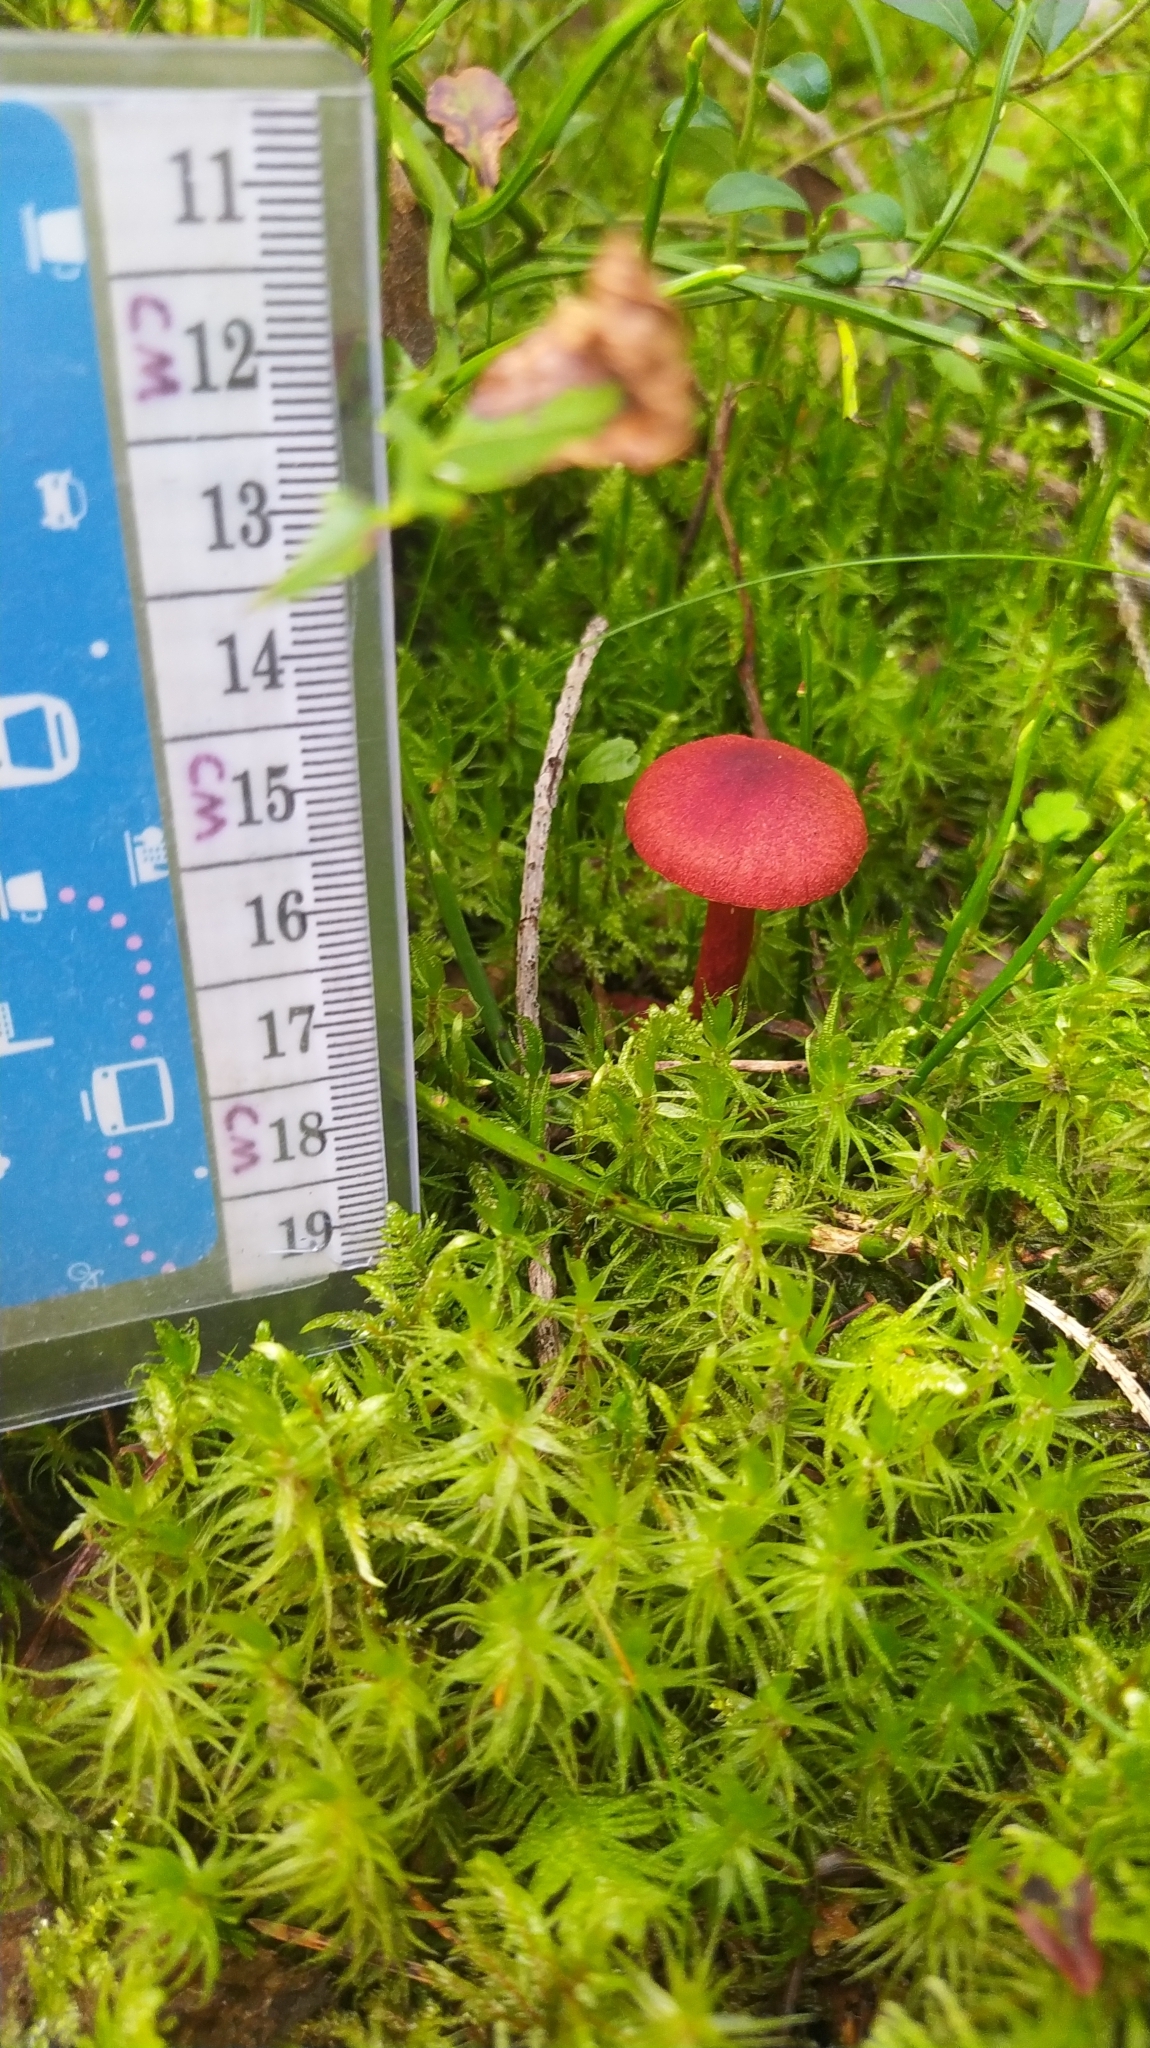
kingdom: Fungi
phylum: Basidiomycota
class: Agaricomycetes
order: Agaricales
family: Cortinariaceae
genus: Cortinarius
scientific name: Cortinarius sanguineus
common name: Bloodred webcap
